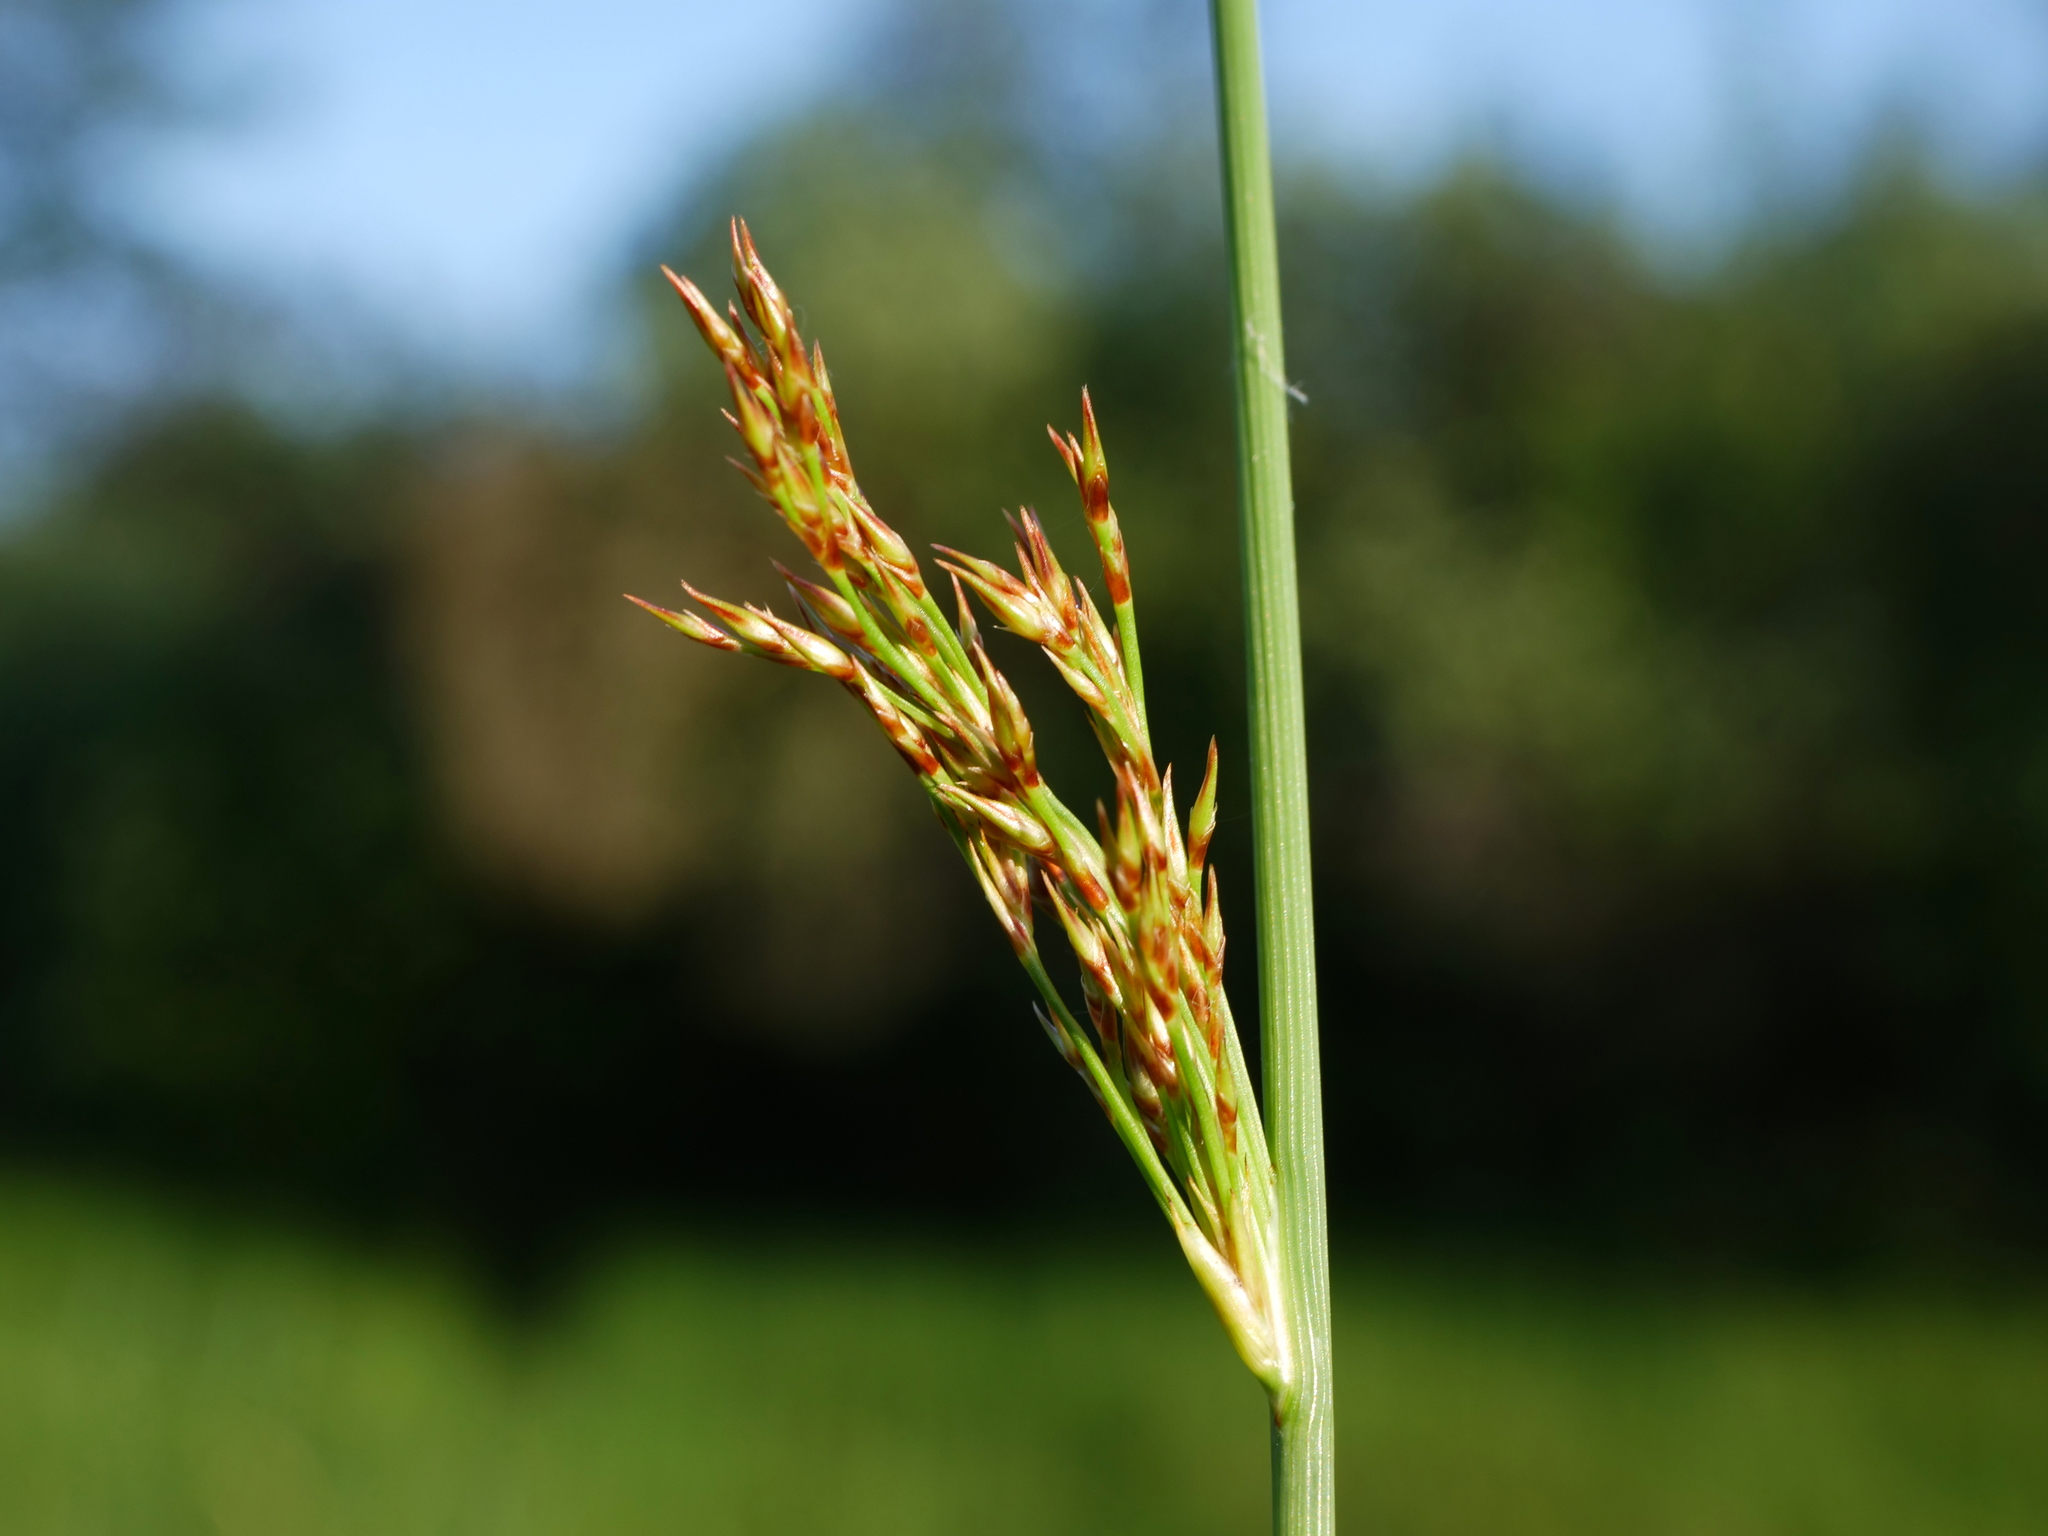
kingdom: Plantae
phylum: Tracheophyta
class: Liliopsida
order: Poales
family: Juncaceae
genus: Juncus
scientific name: Juncus inflexus
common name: Hard rush
